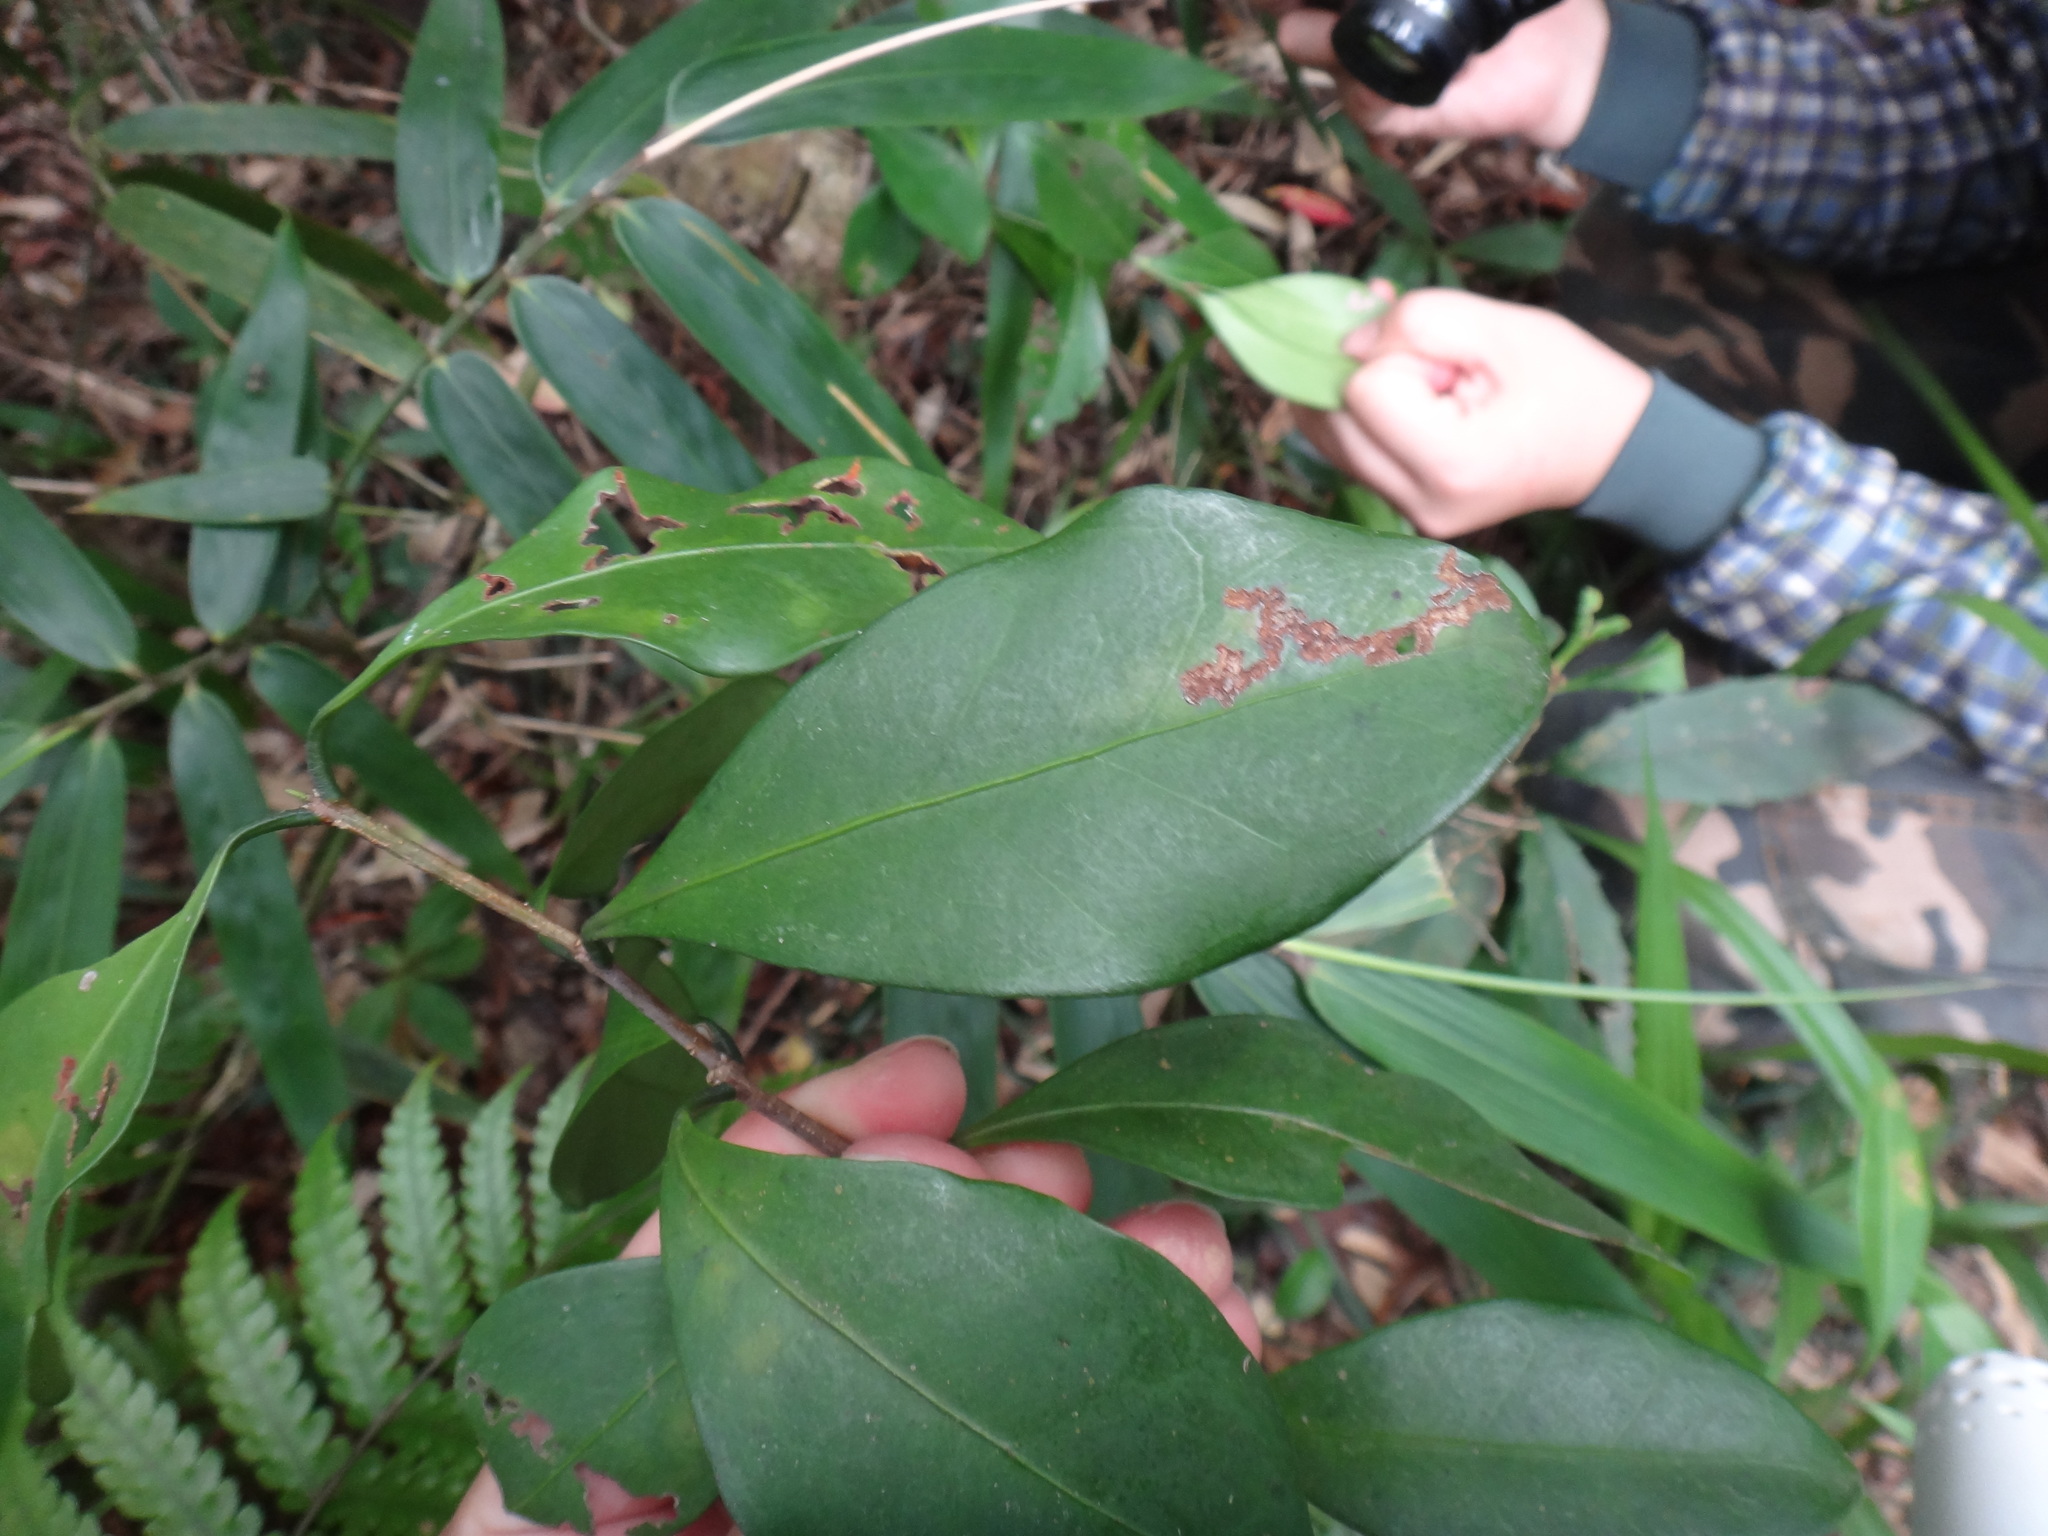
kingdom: Plantae
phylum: Tracheophyta
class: Magnoliopsida
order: Celastrales
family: Celastraceae
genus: Microtropis
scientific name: Microtropis japonica
